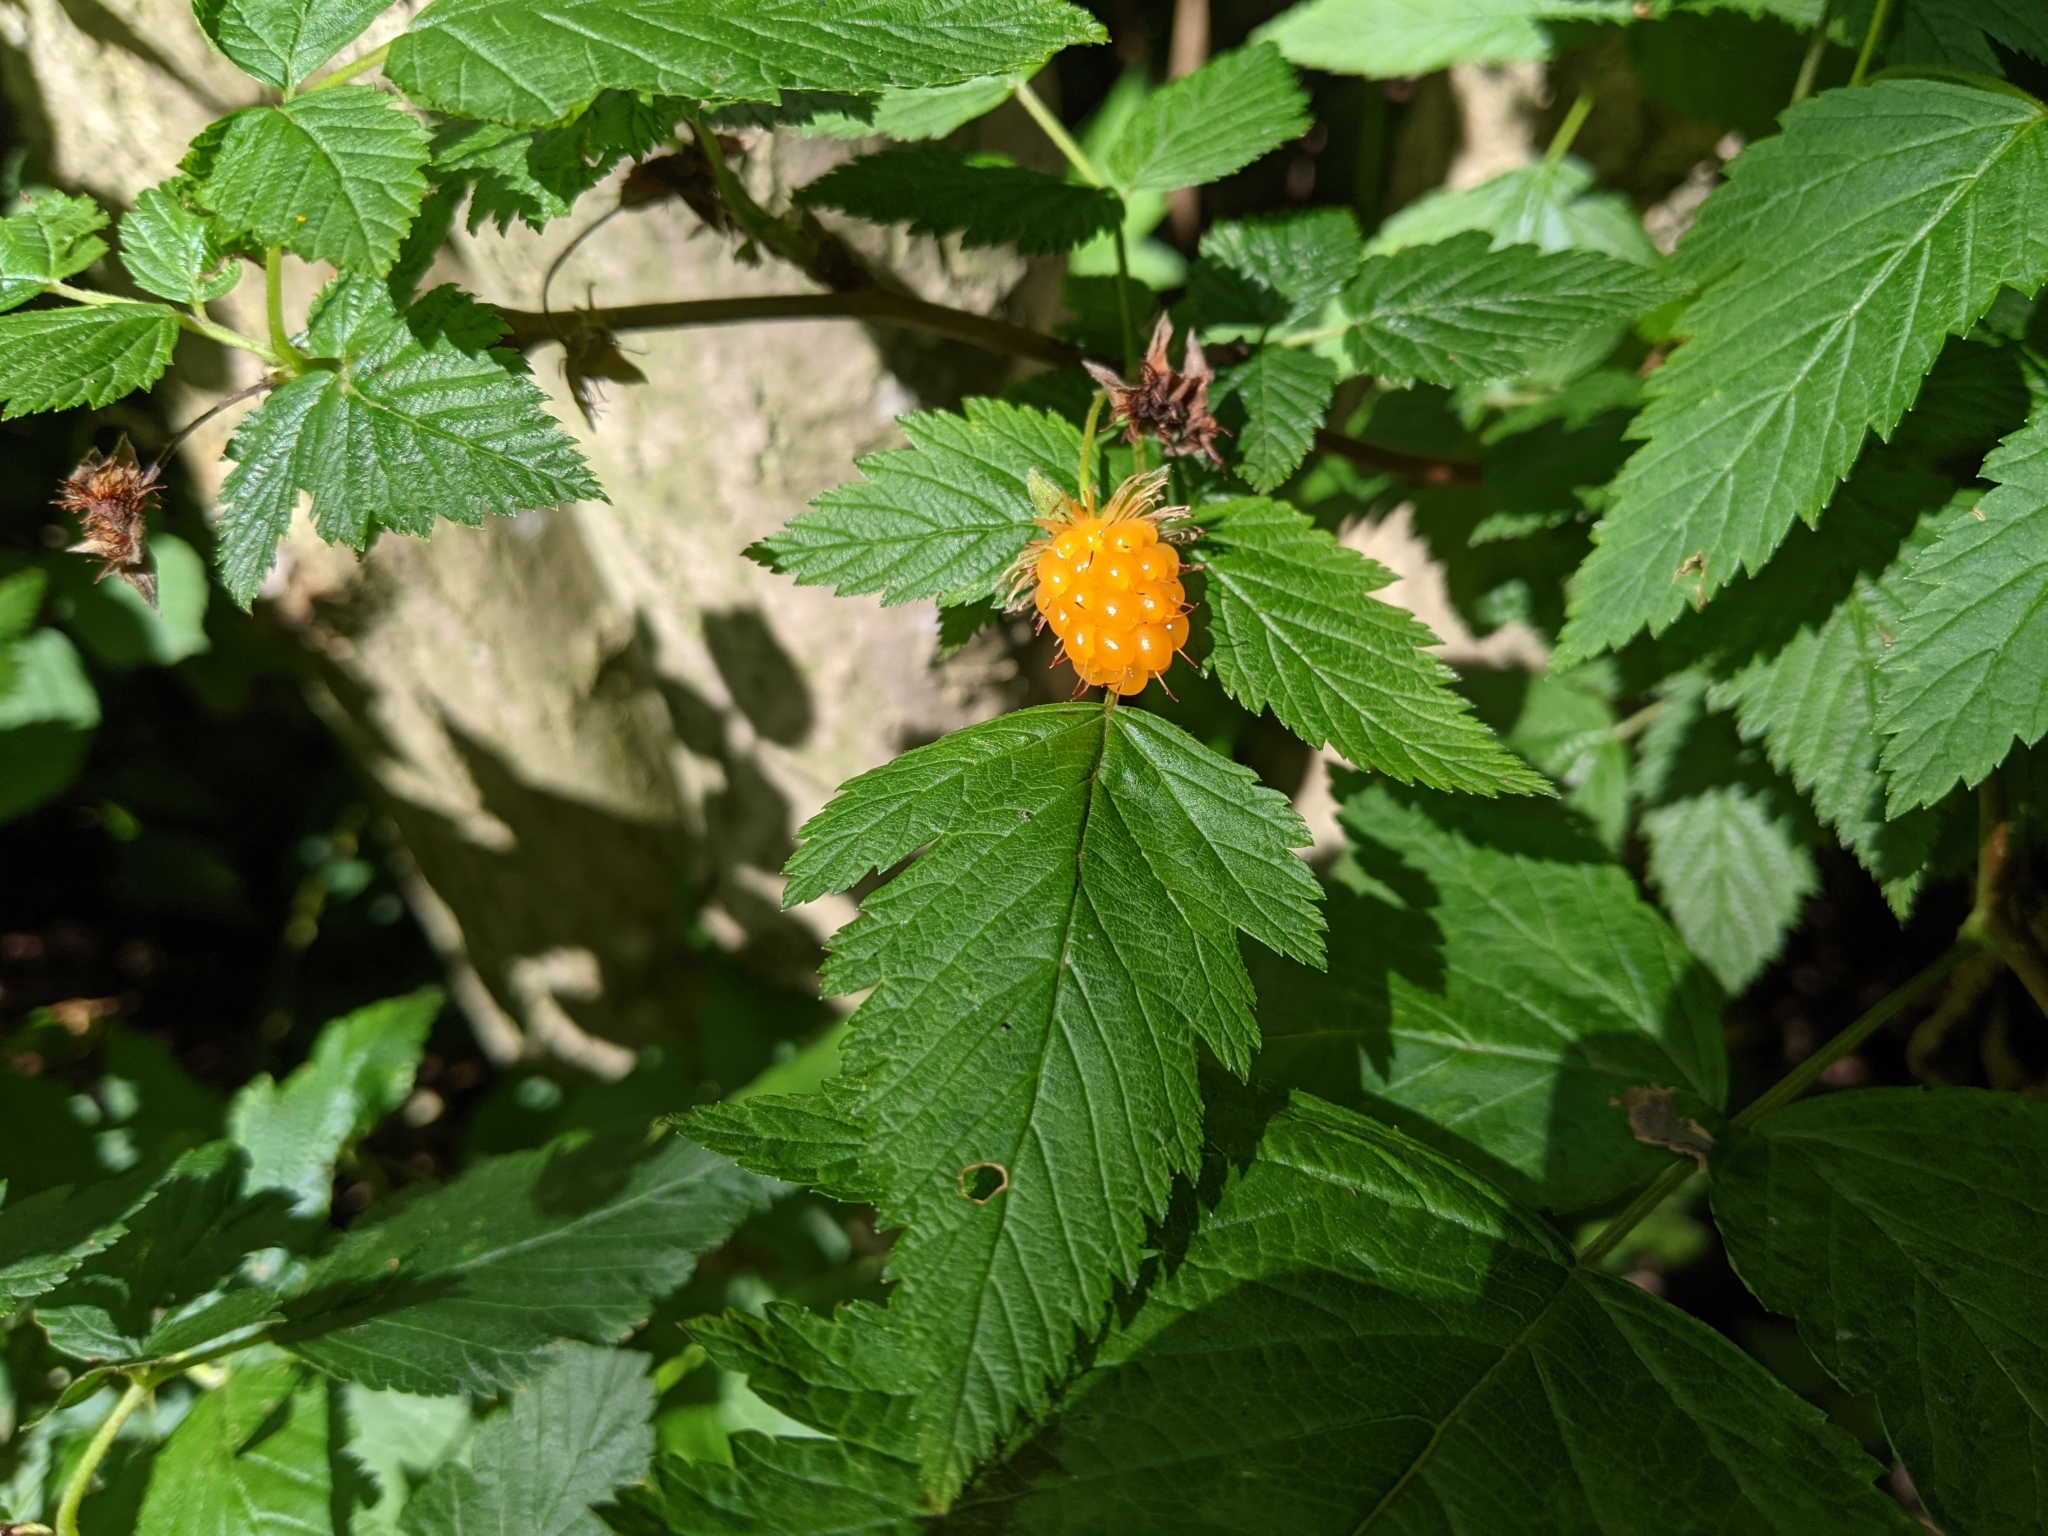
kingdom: Plantae
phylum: Tracheophyta
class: Magnoliopsida
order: Rosales
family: Rosaceae
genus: Rubus
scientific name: Rubus spectabilis
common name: Salmonberry
